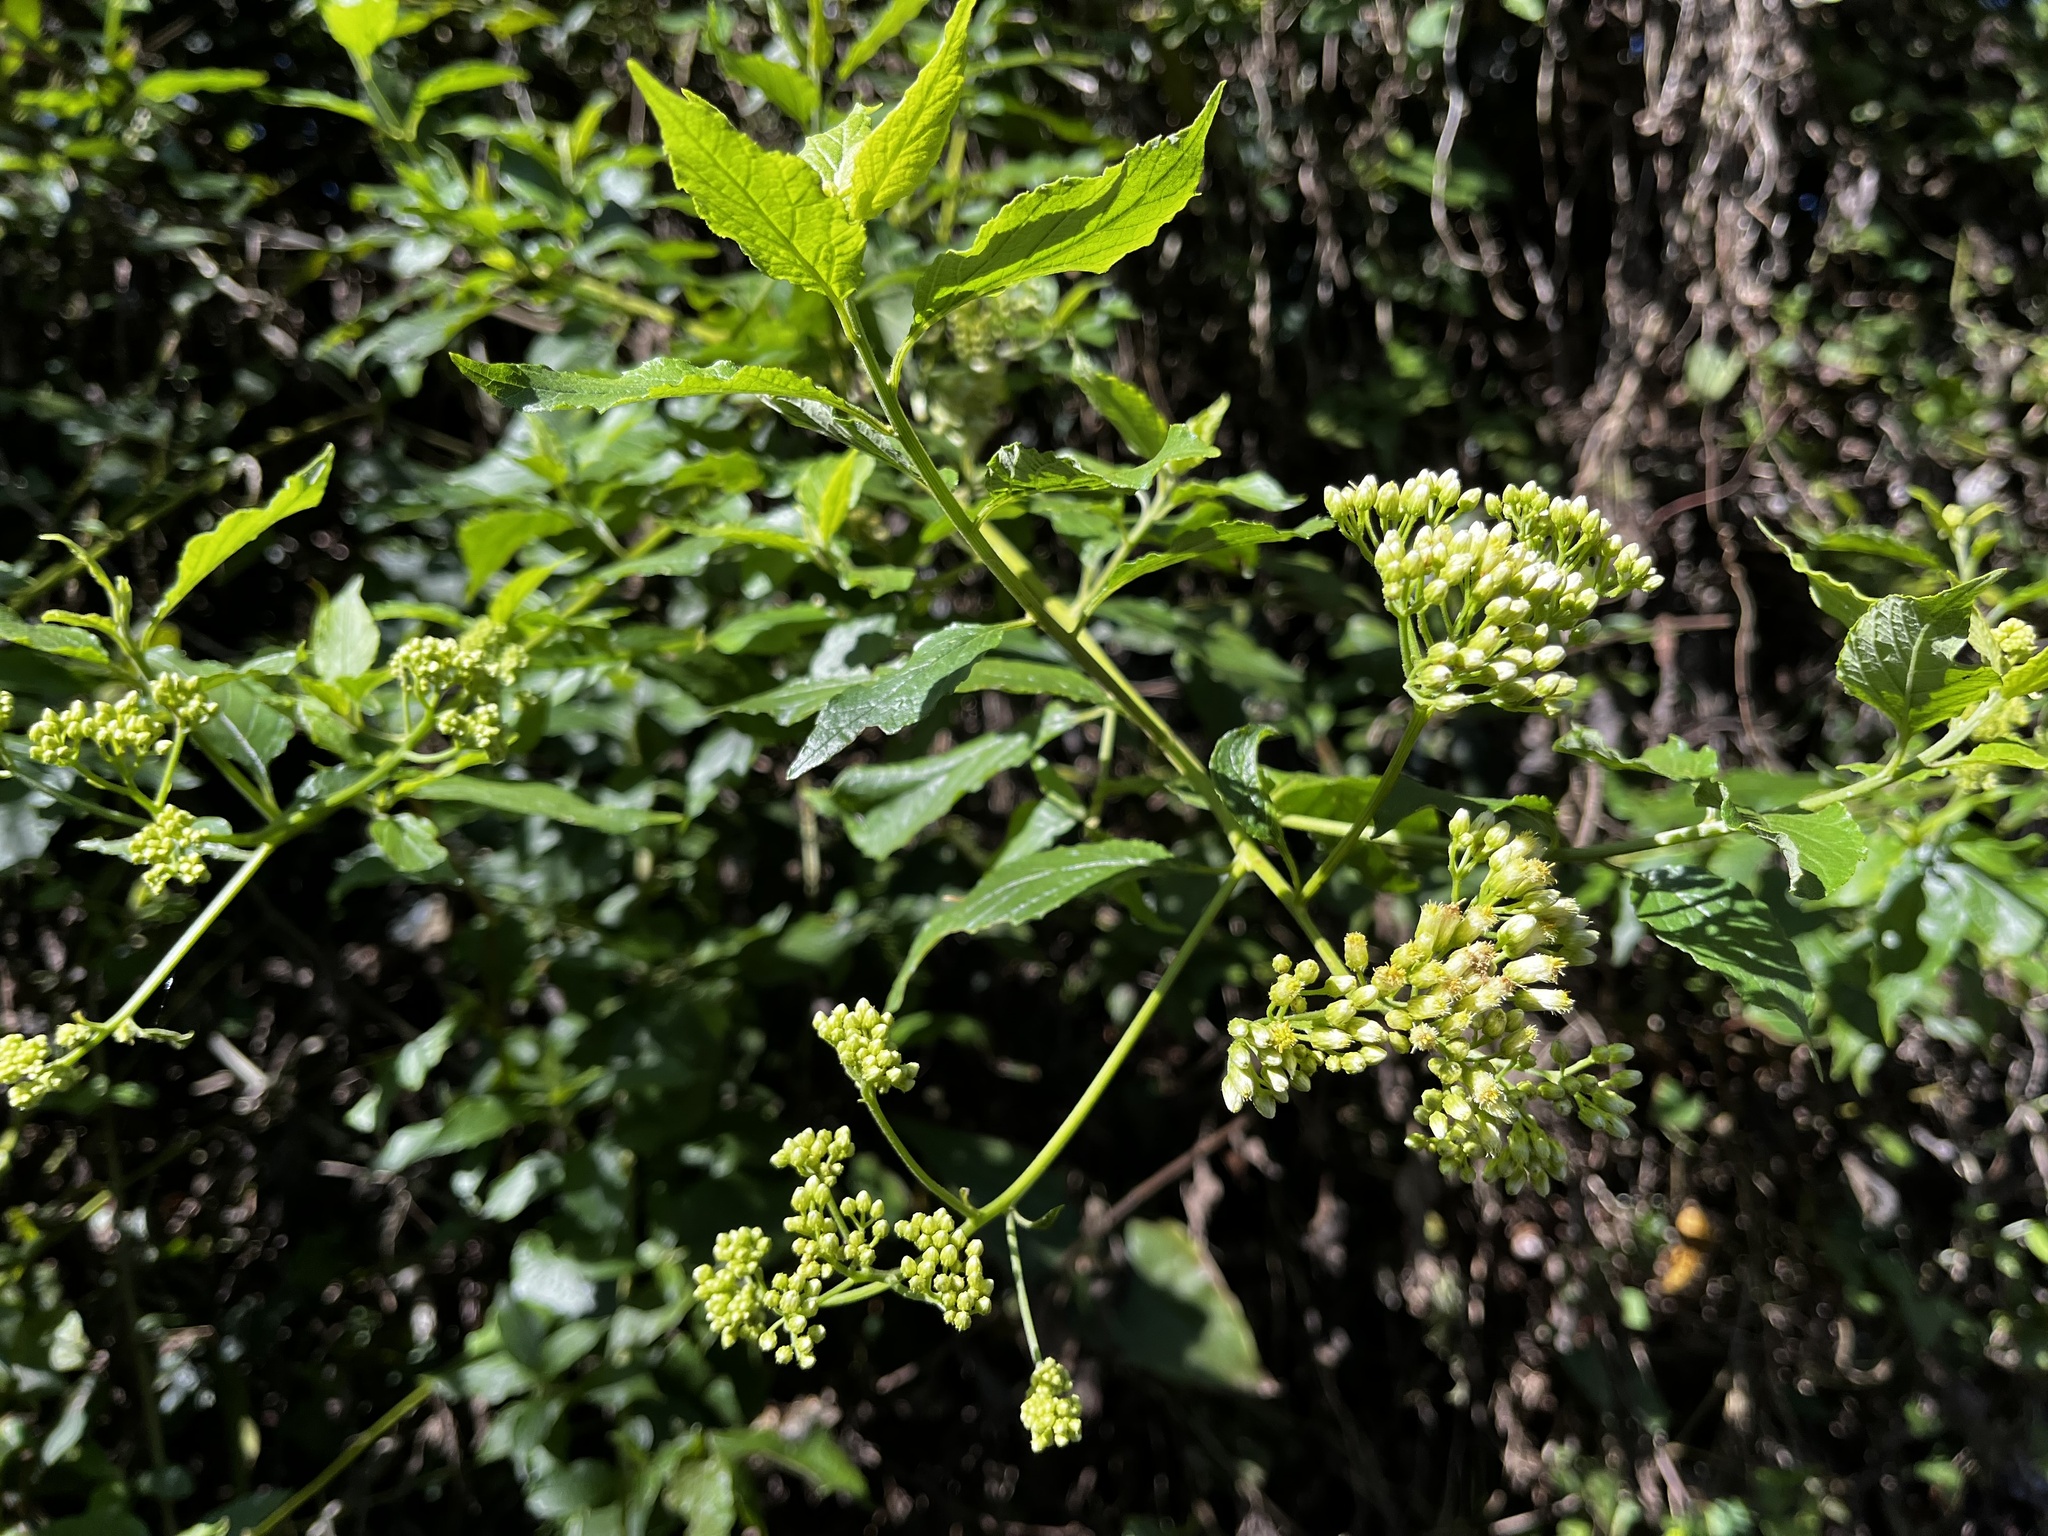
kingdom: Plantae
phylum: Tracheophyta
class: Magnoliopsida
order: Asterales
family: Asteraceae
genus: Microglossa
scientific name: Microglossa pyrifolia
